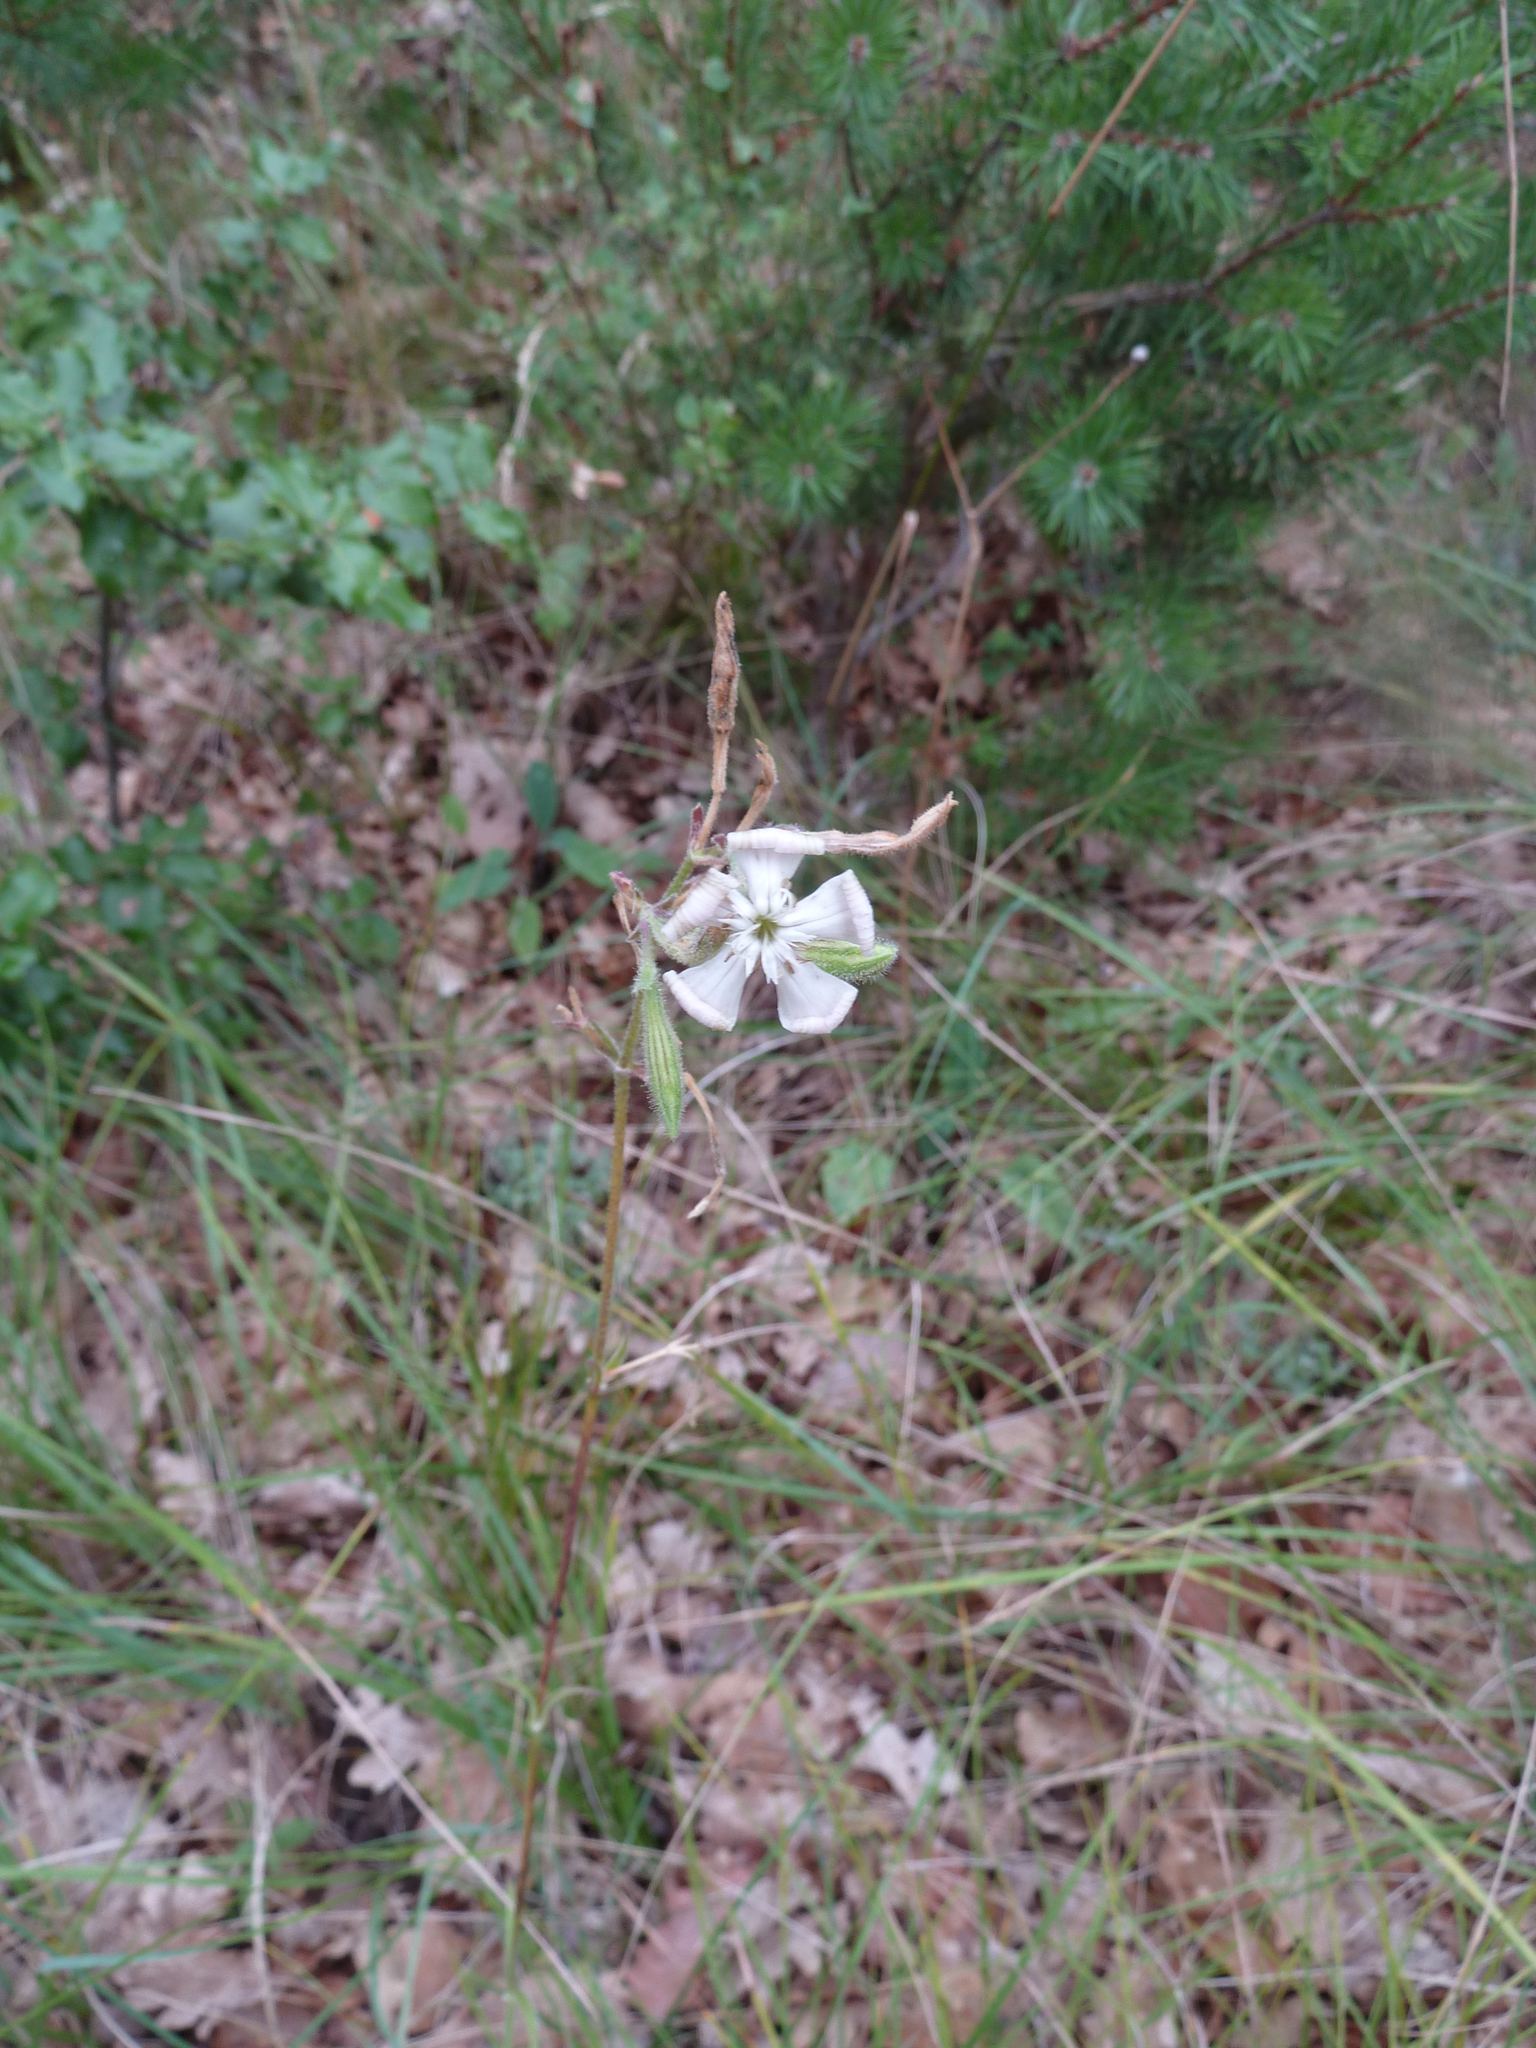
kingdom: Plantae
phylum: Tracheophyta
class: Magnoliopsida
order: Caryophyllales
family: Caryophyllaceae
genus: Silene
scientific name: Silene paradoxa
